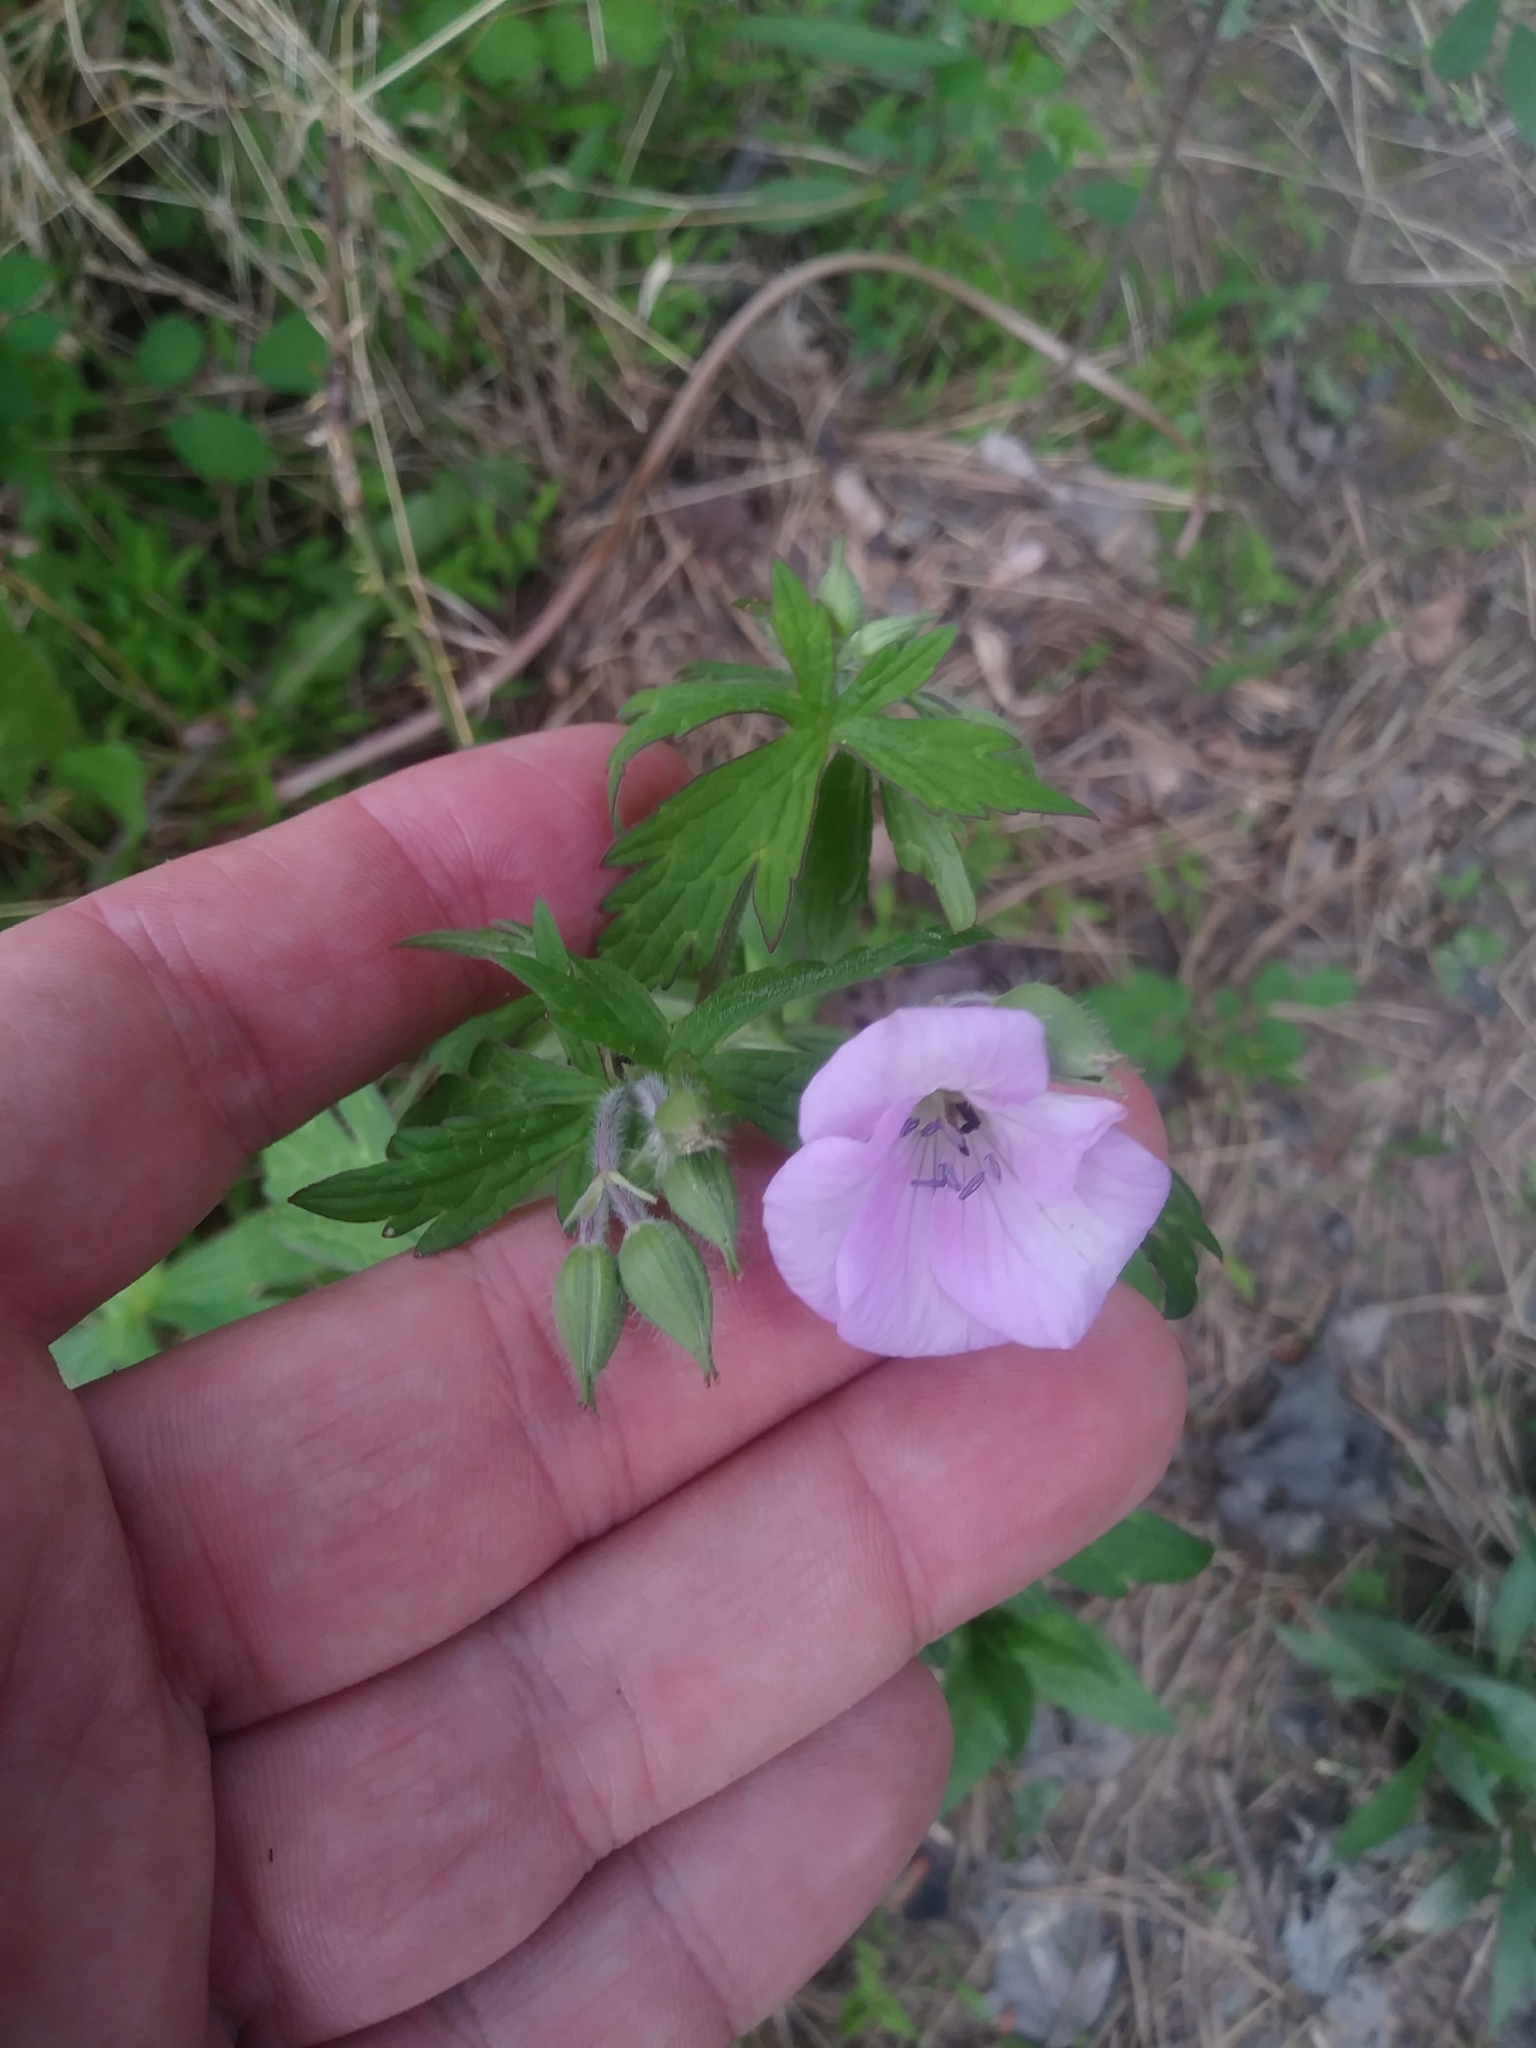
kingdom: Plantae
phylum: Tracheophyta
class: Magnoliopsida
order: Geraniales
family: Geraniaceae
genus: Geranium
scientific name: Geranium maculatum
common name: Spotted geranium
